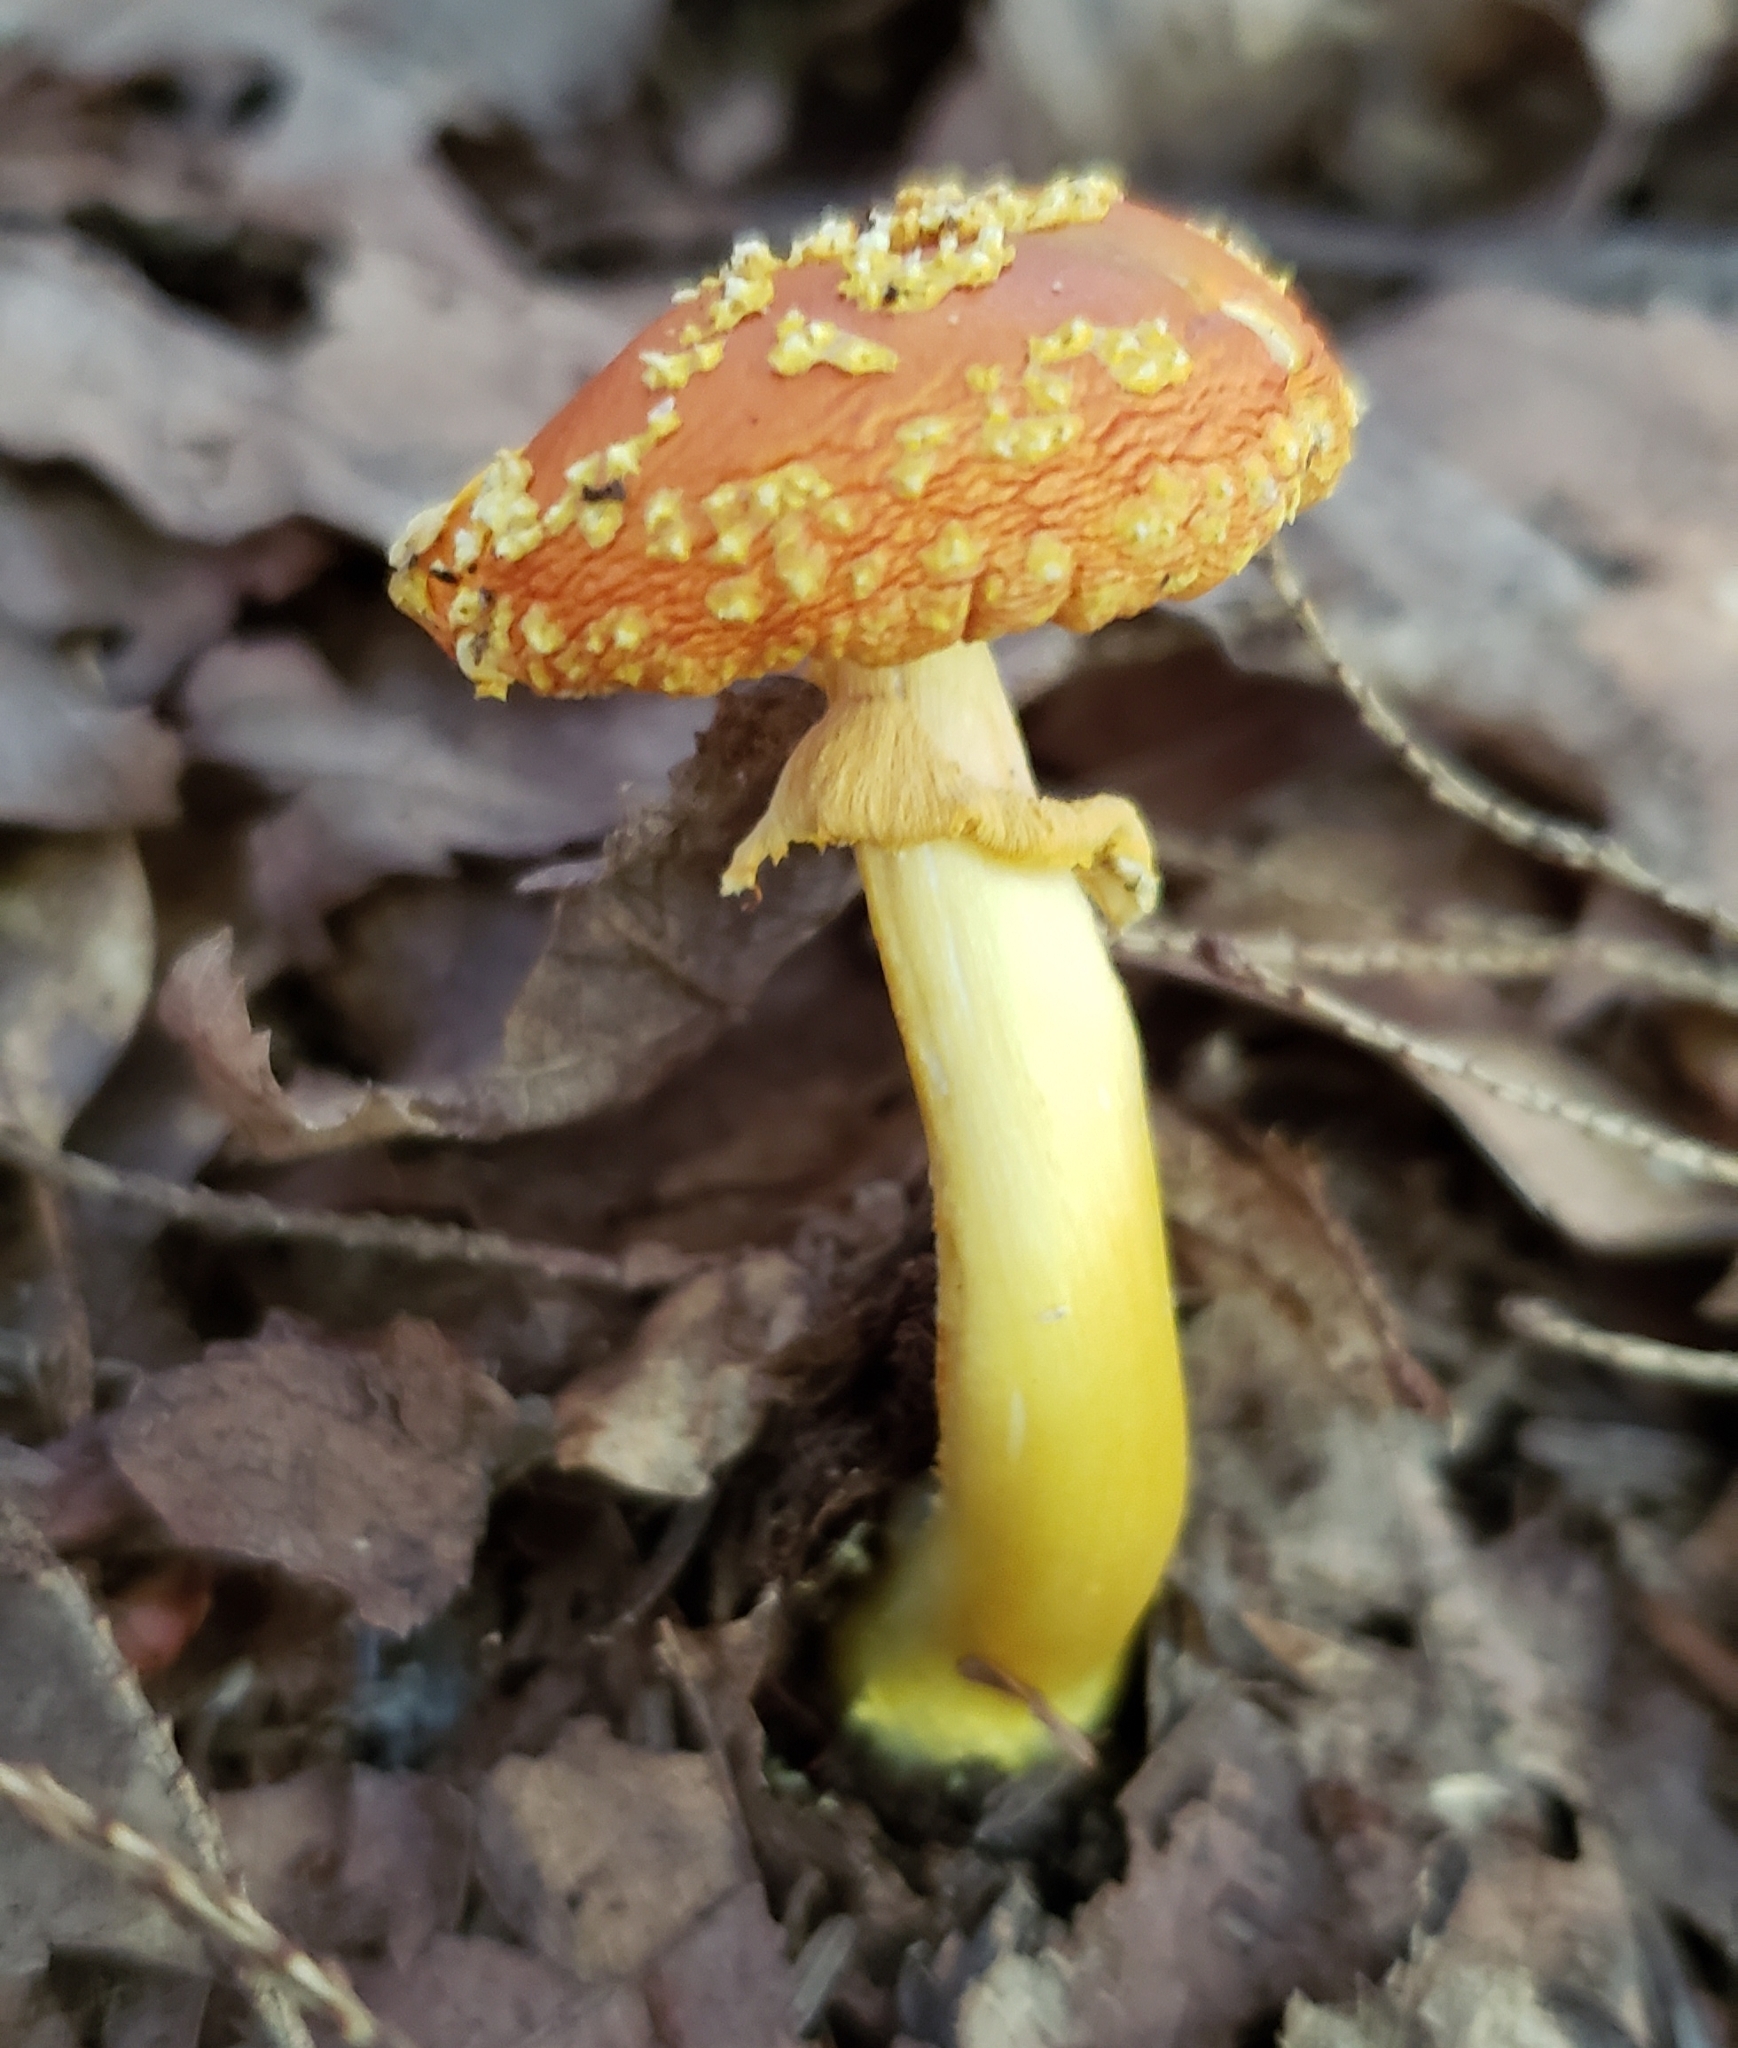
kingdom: Fungi
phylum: Basidiomycota
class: Agaricomycetes
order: Agaricales
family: Amanitaceae
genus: Amanita
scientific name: Amanita flavoconia
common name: Yellow patches
